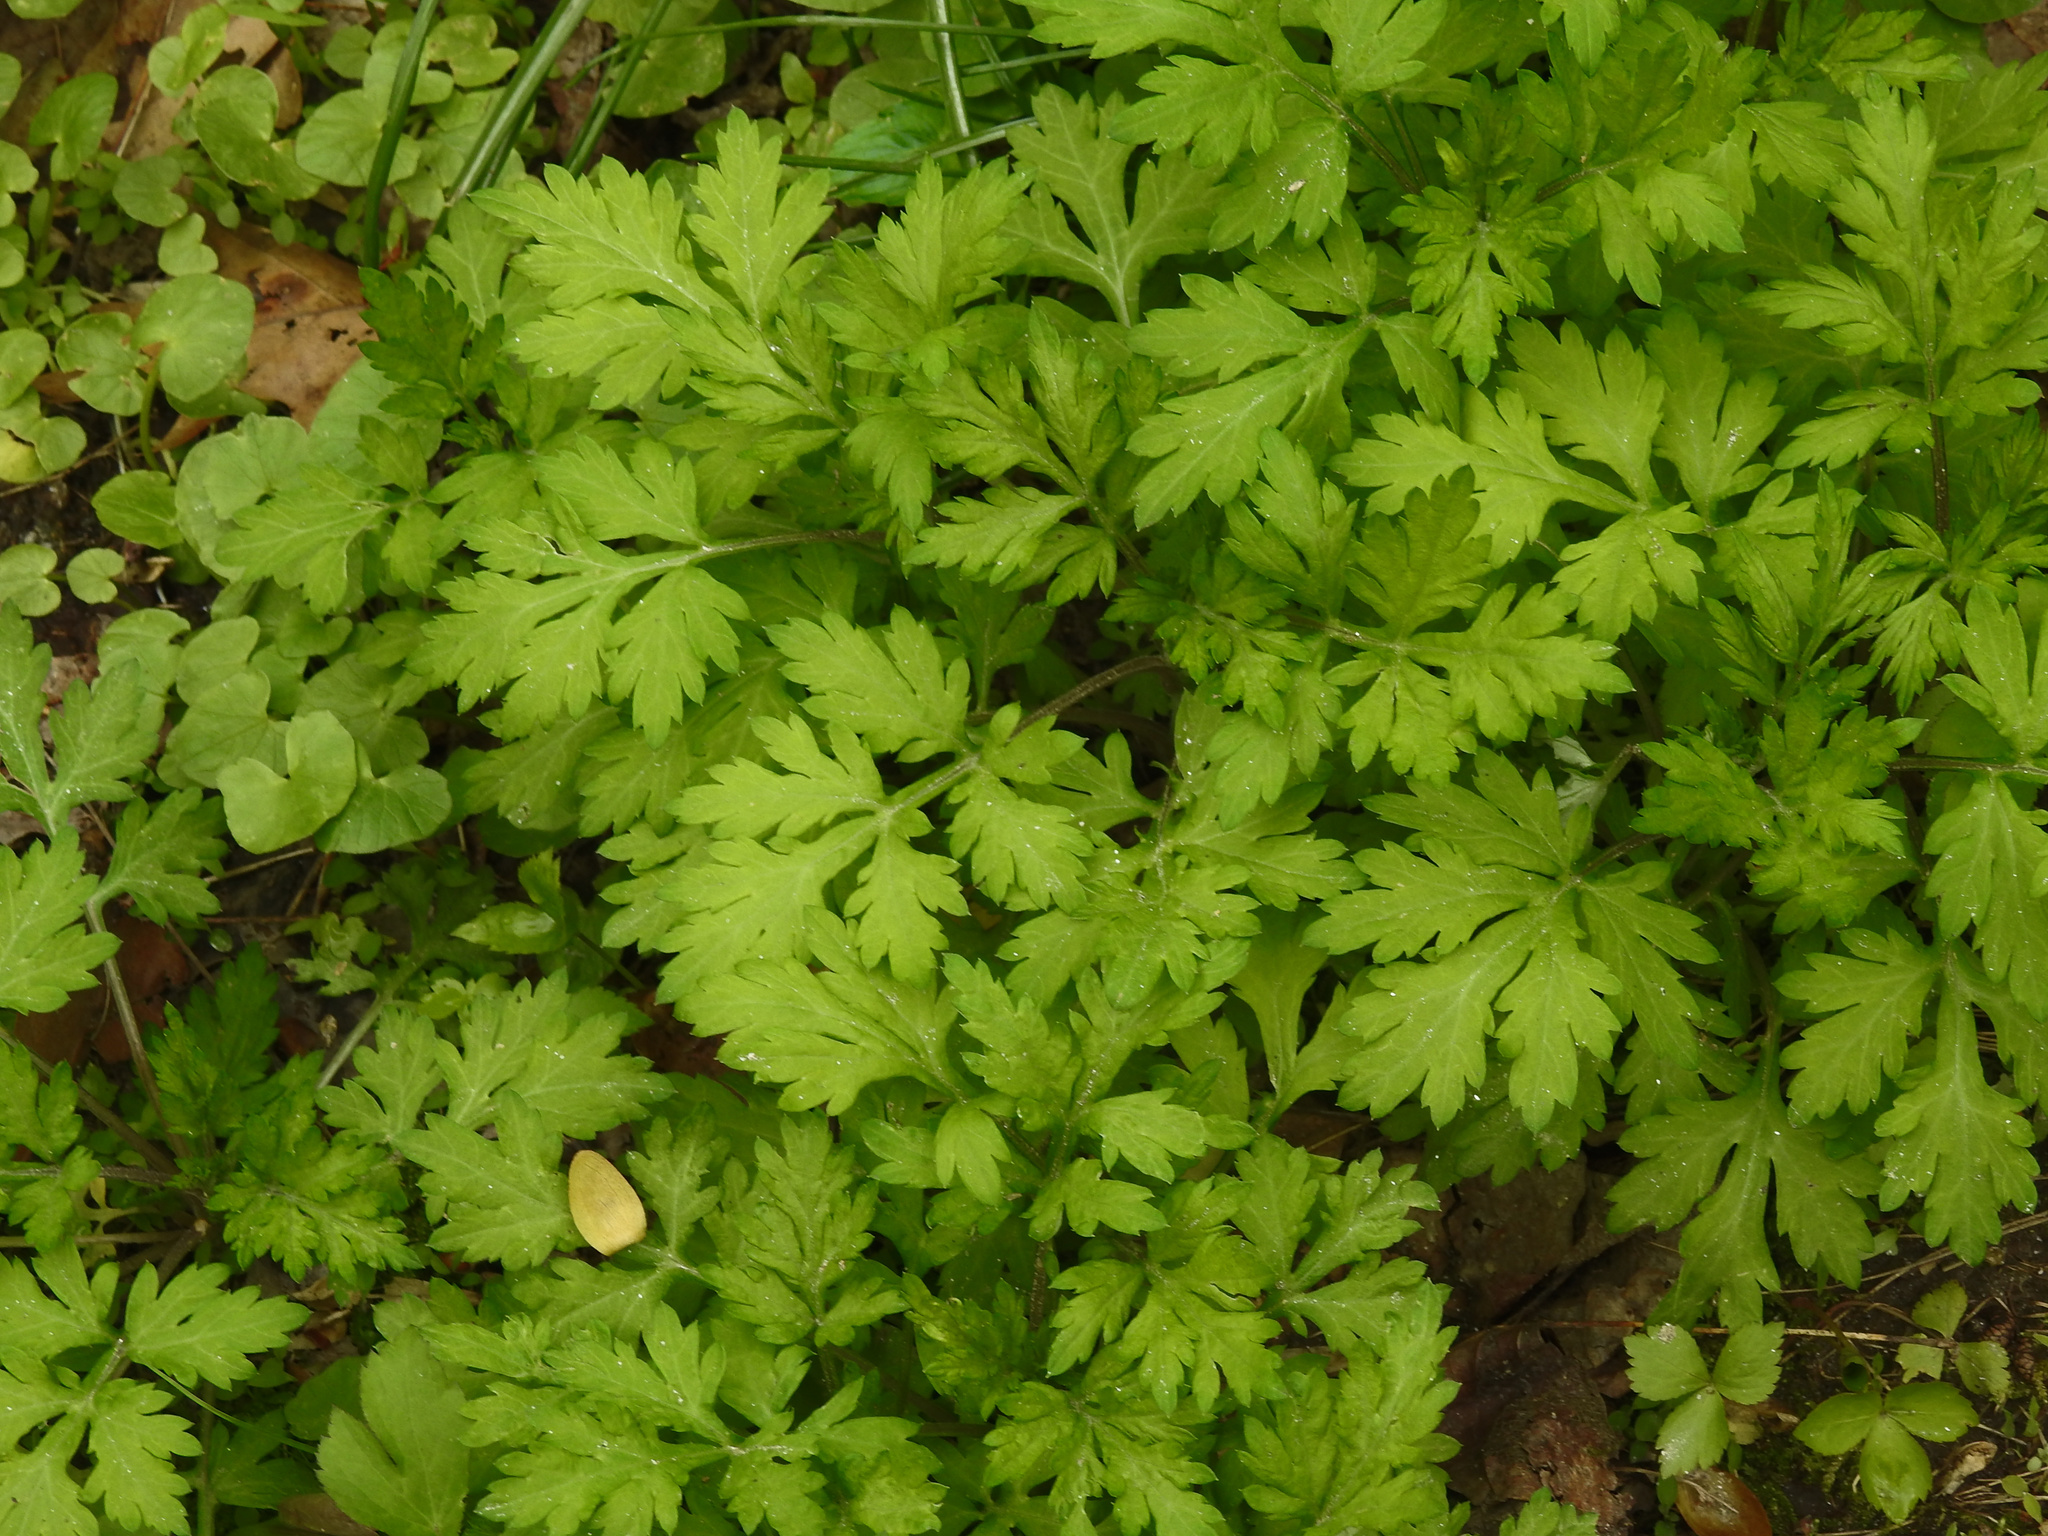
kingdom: Plantae
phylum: Tracheophyta
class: Magnoliopsida
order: Asterales
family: Asteraceae
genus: Artemisia
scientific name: Artemisia vulgaris
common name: Mugwort
